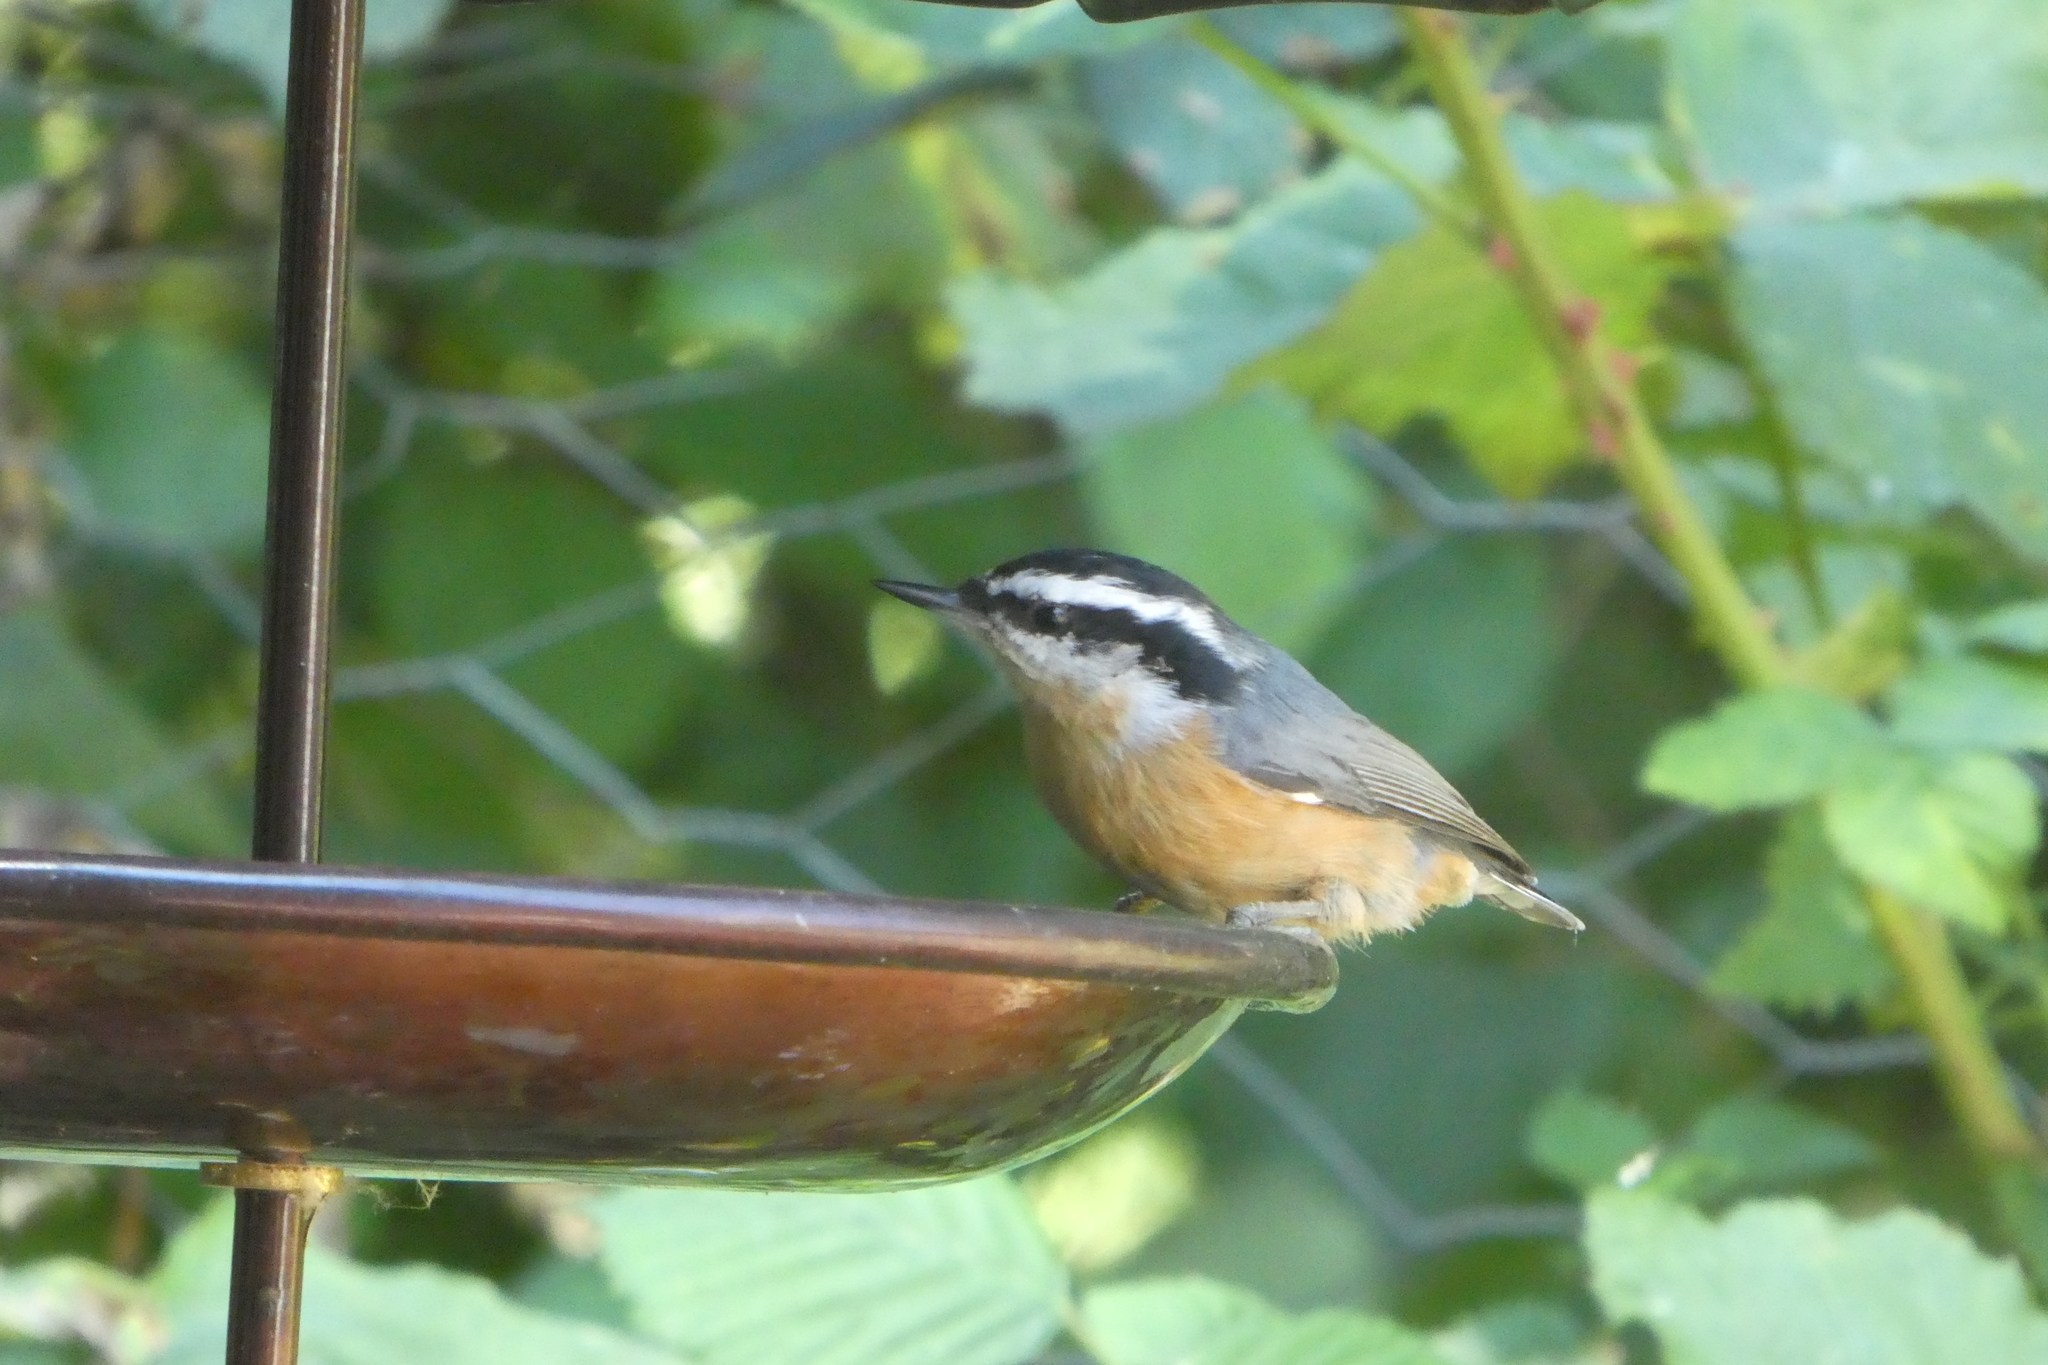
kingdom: Animalia
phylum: Chordata
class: Aves
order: Passeriformes
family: Sittidae
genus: Sitta
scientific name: Sitta canadensis
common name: Red-breasted nuthatch
